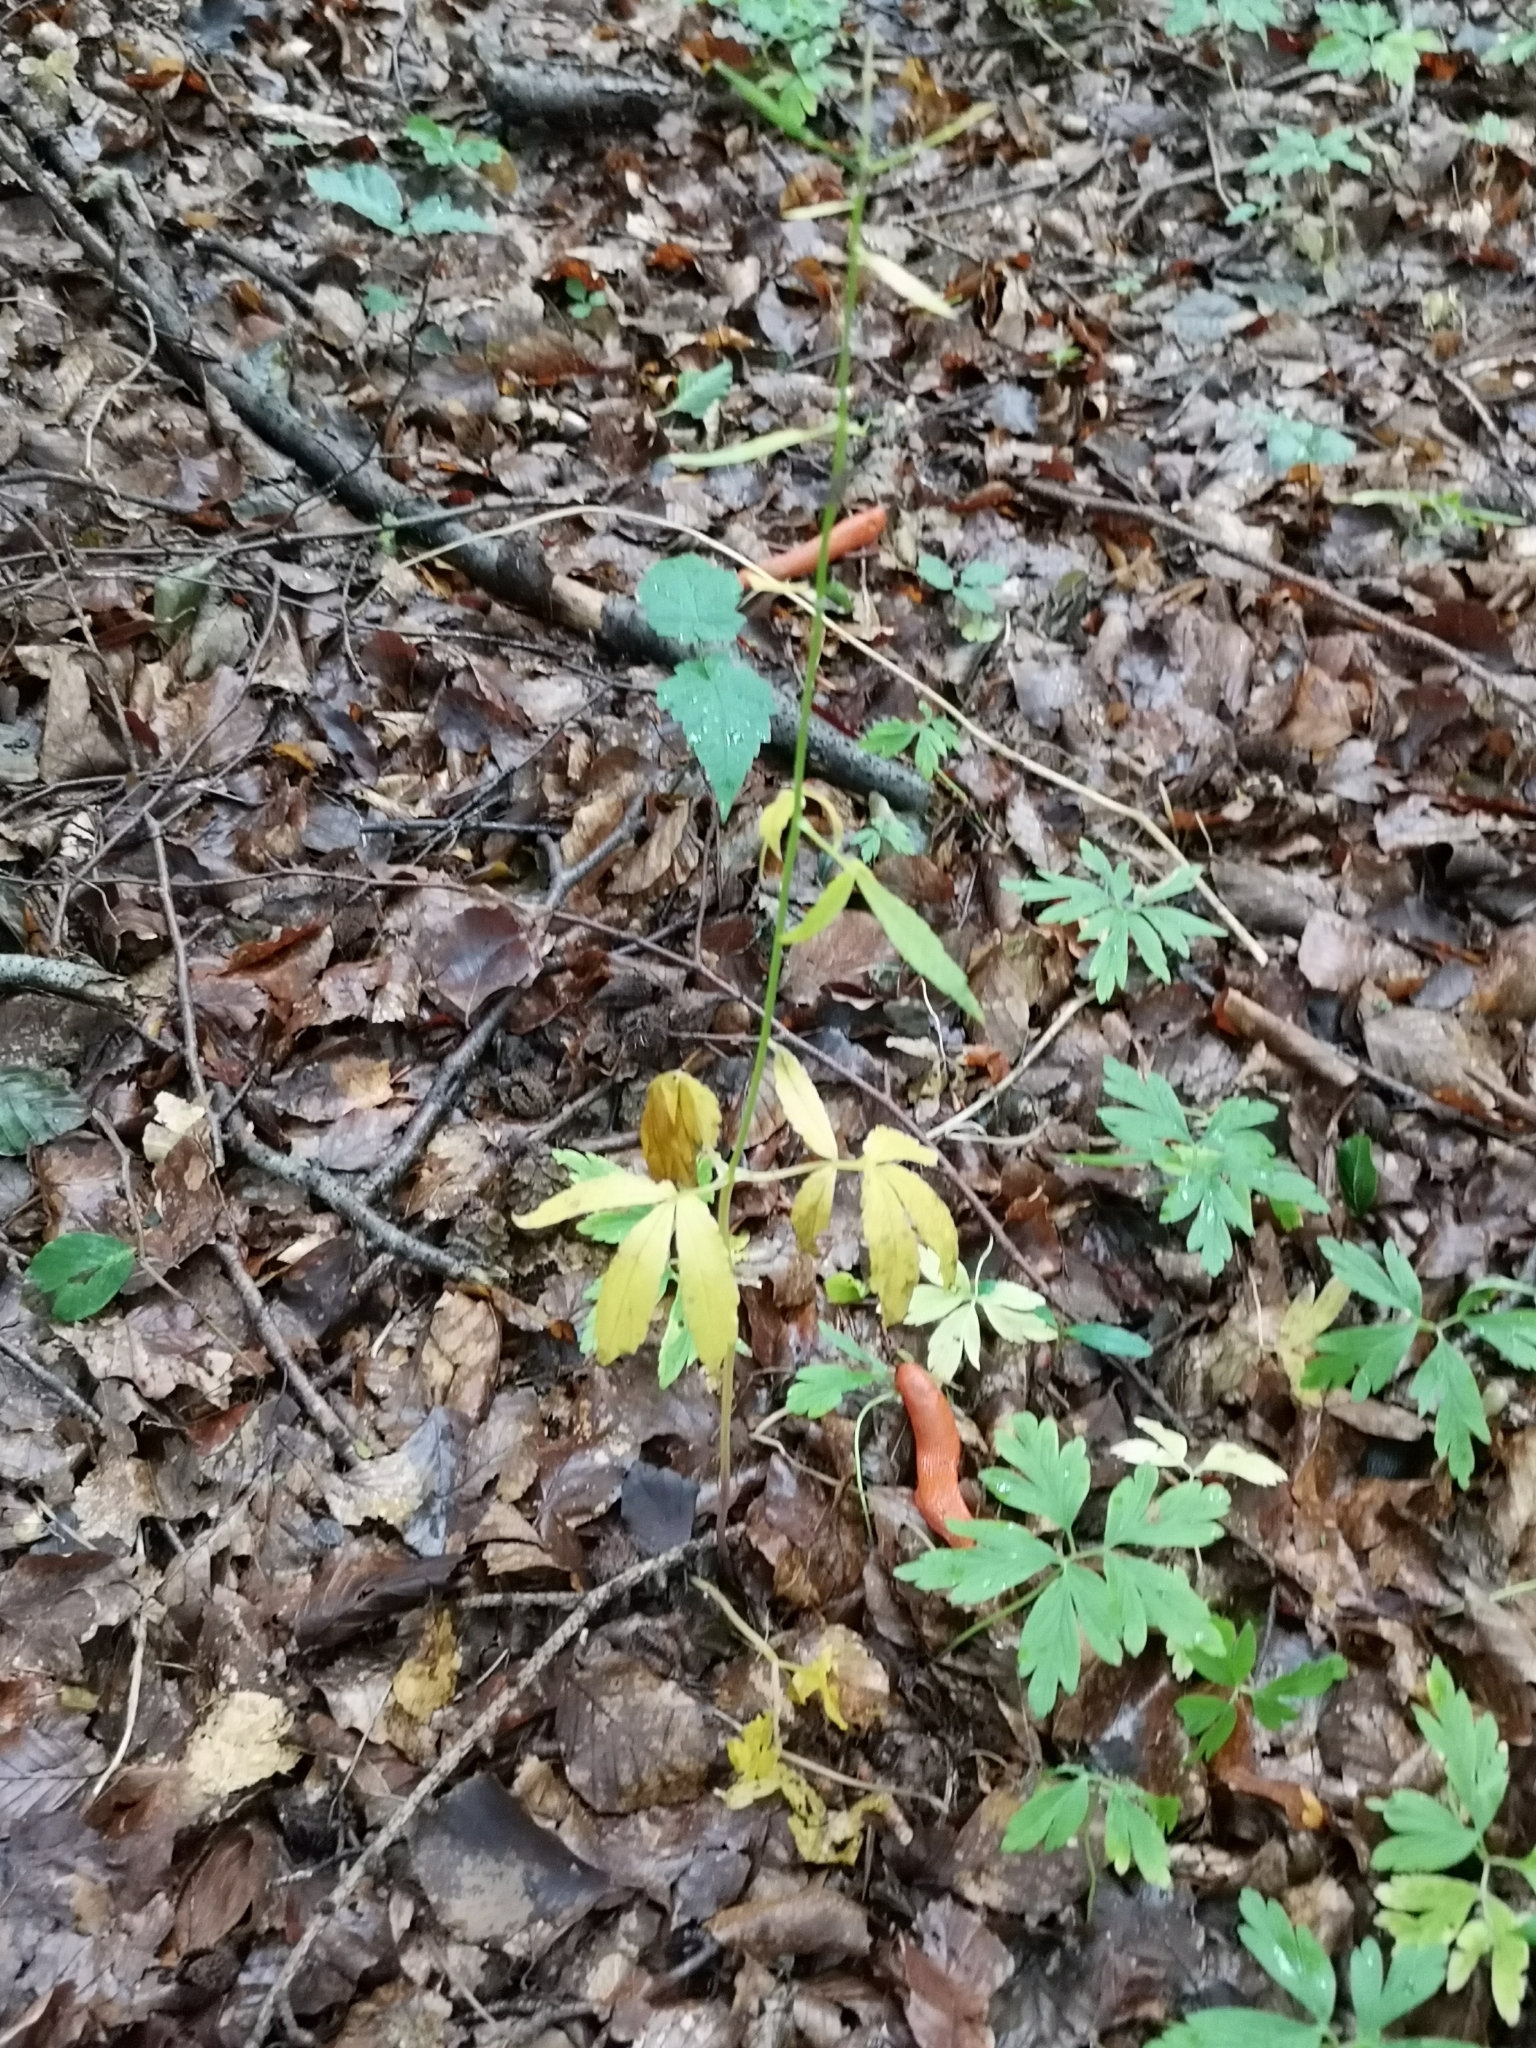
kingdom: Plantae
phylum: Tracheophyta
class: Magnoliopsida
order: Brassicales
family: Brassicaceae
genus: Cardamine
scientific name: Cardamine bulbifera
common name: Coralroot bittercress
